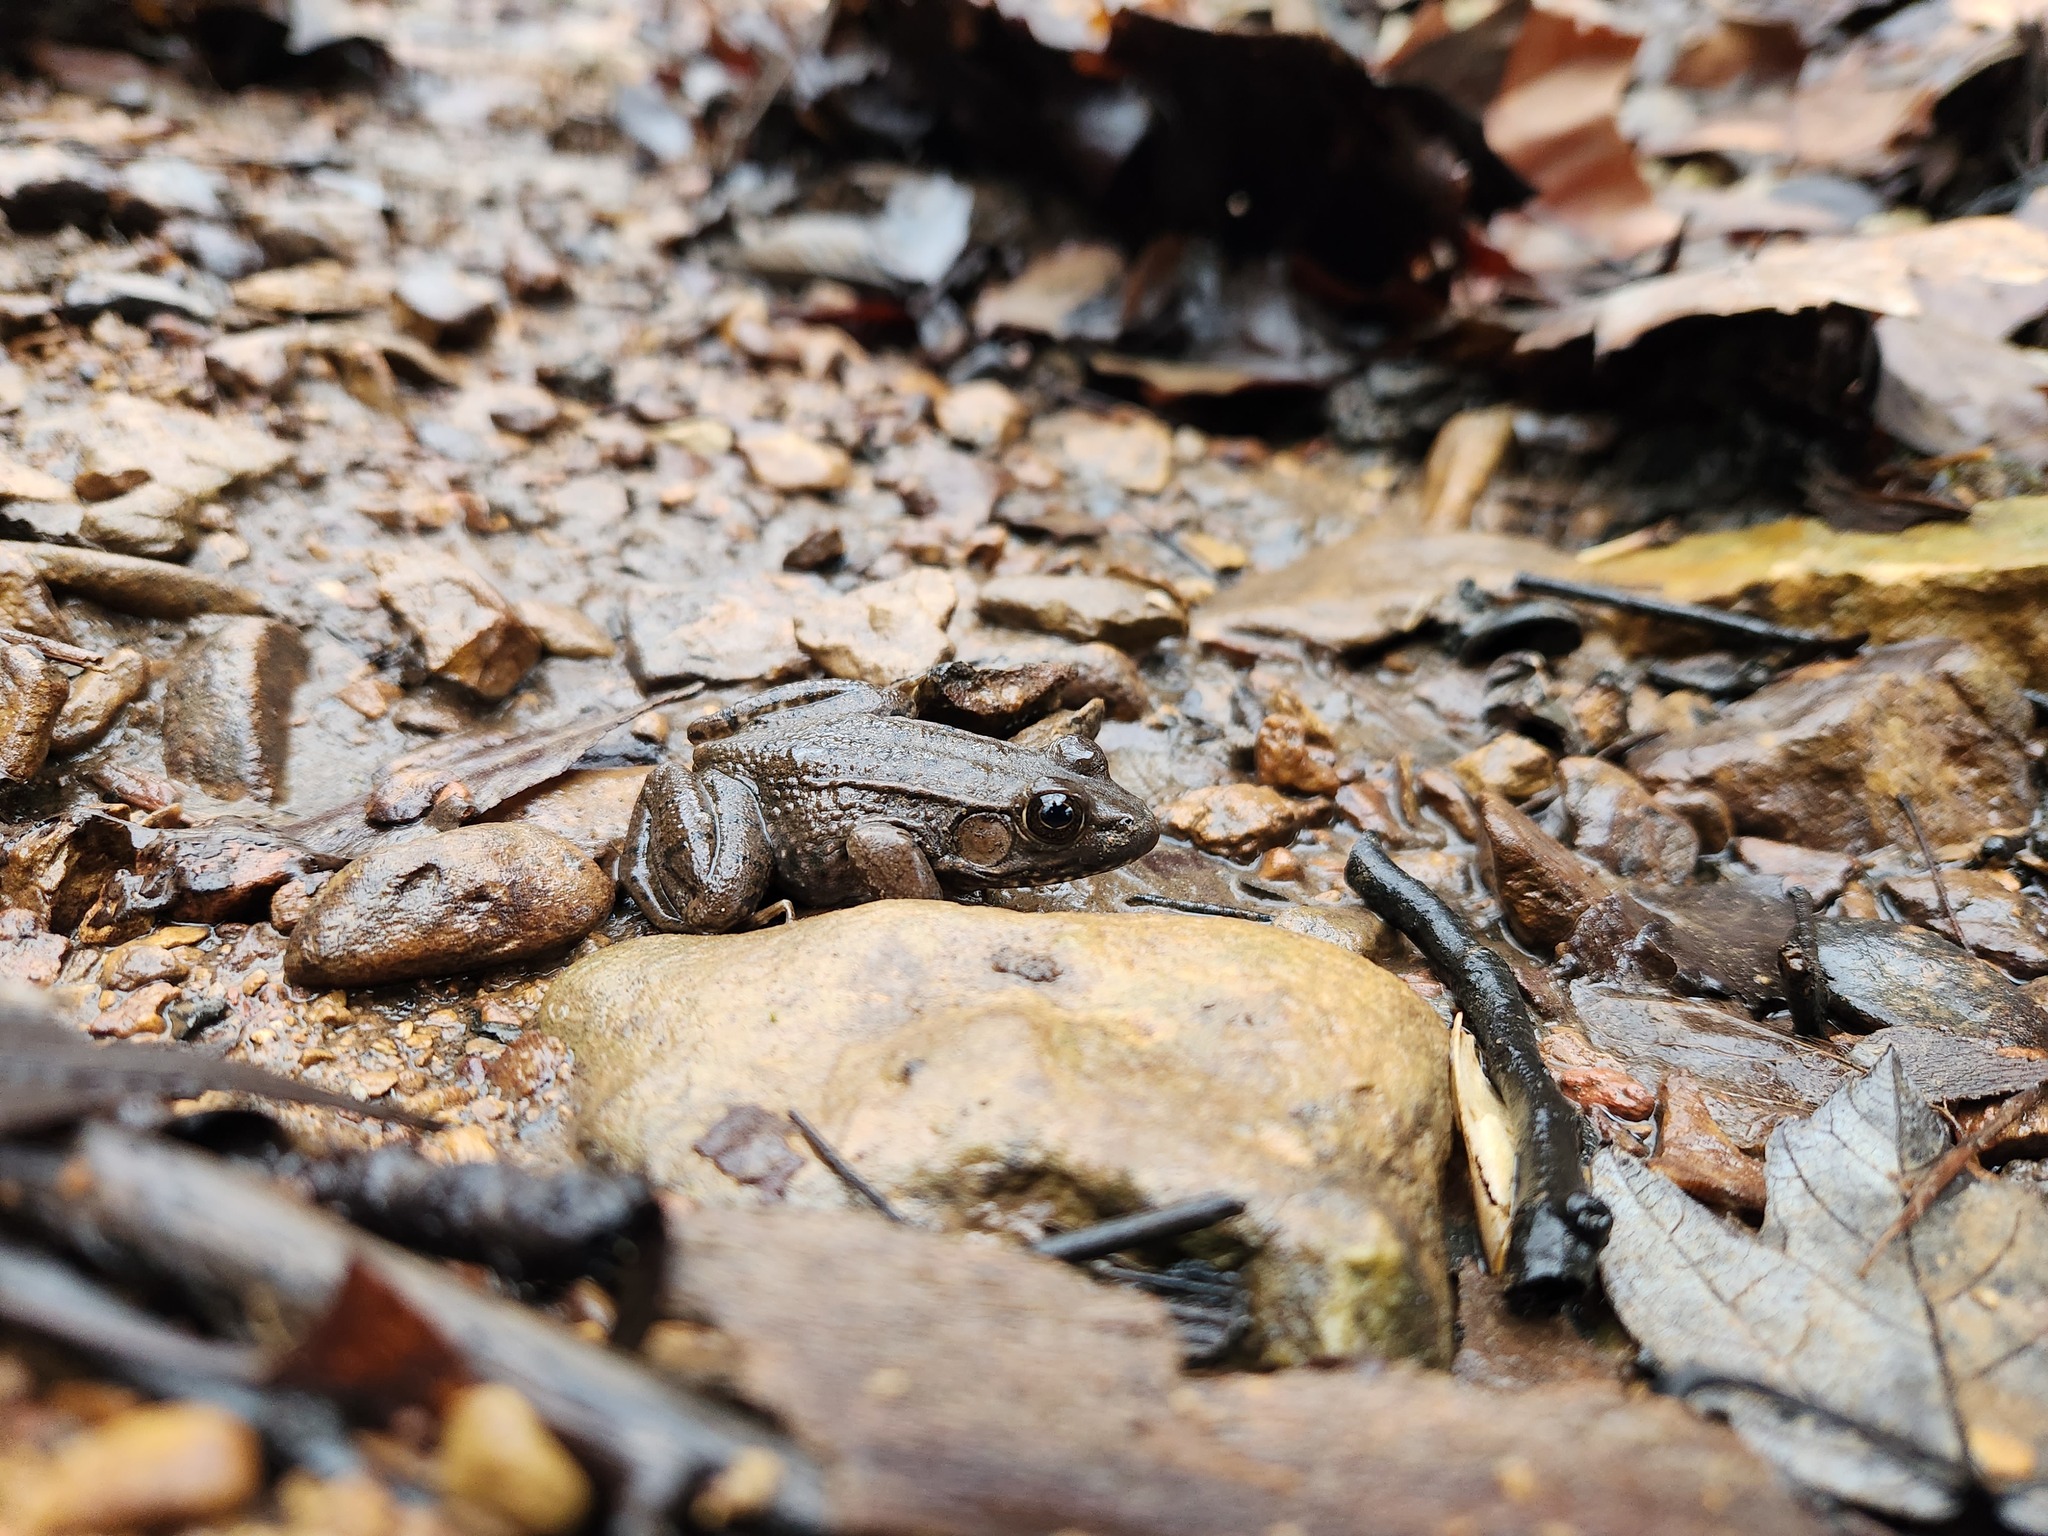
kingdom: Animalia
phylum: Chordata
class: Amphibia
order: Anura
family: Ranidae
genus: Lithobates
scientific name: Lithobates clamitans
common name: Green frog
